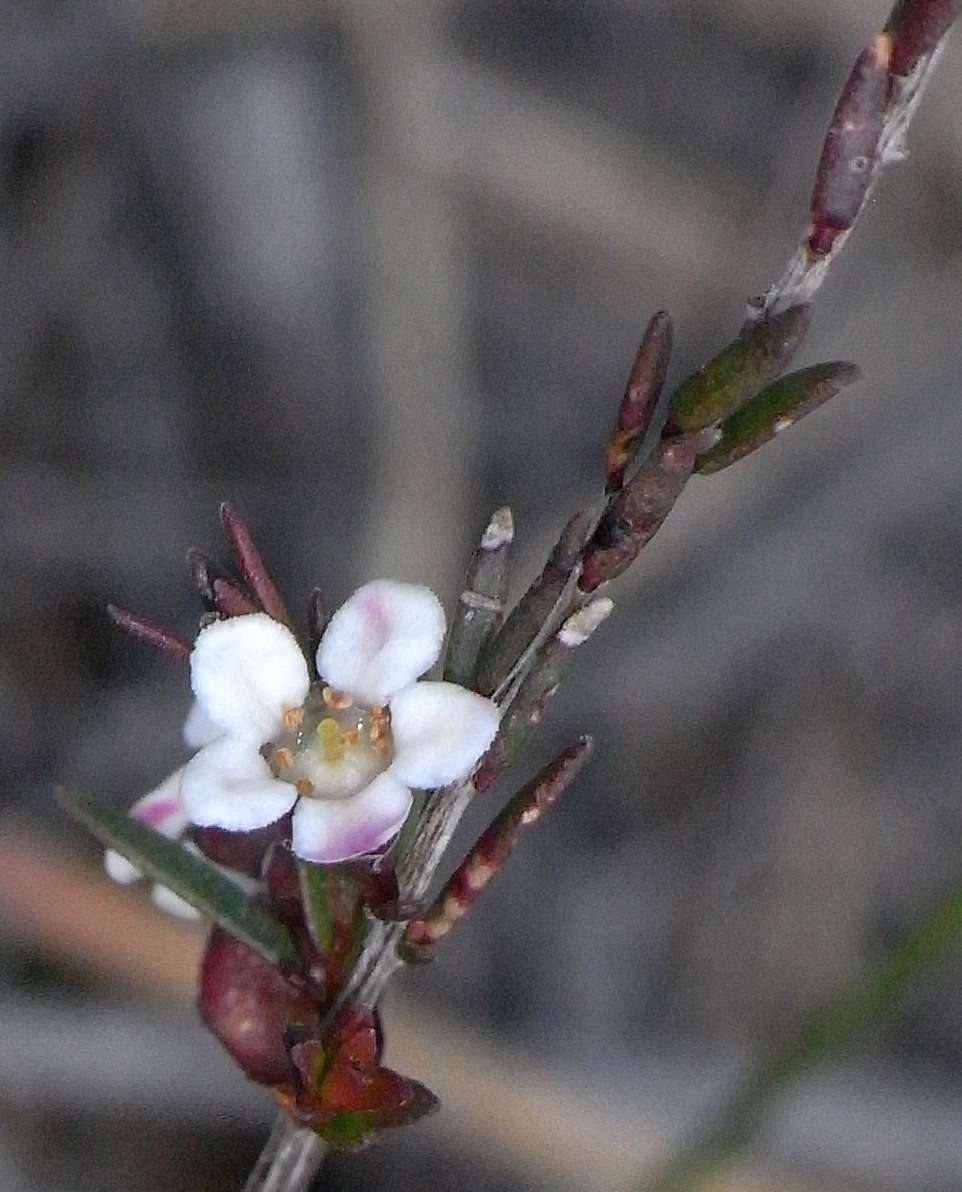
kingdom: Plantae
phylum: Tracheophyta
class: Magnoliopsida
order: Myrtales
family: Myrtaceae
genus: Euryomyrtus
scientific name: Euryomyrtus ramosissima
